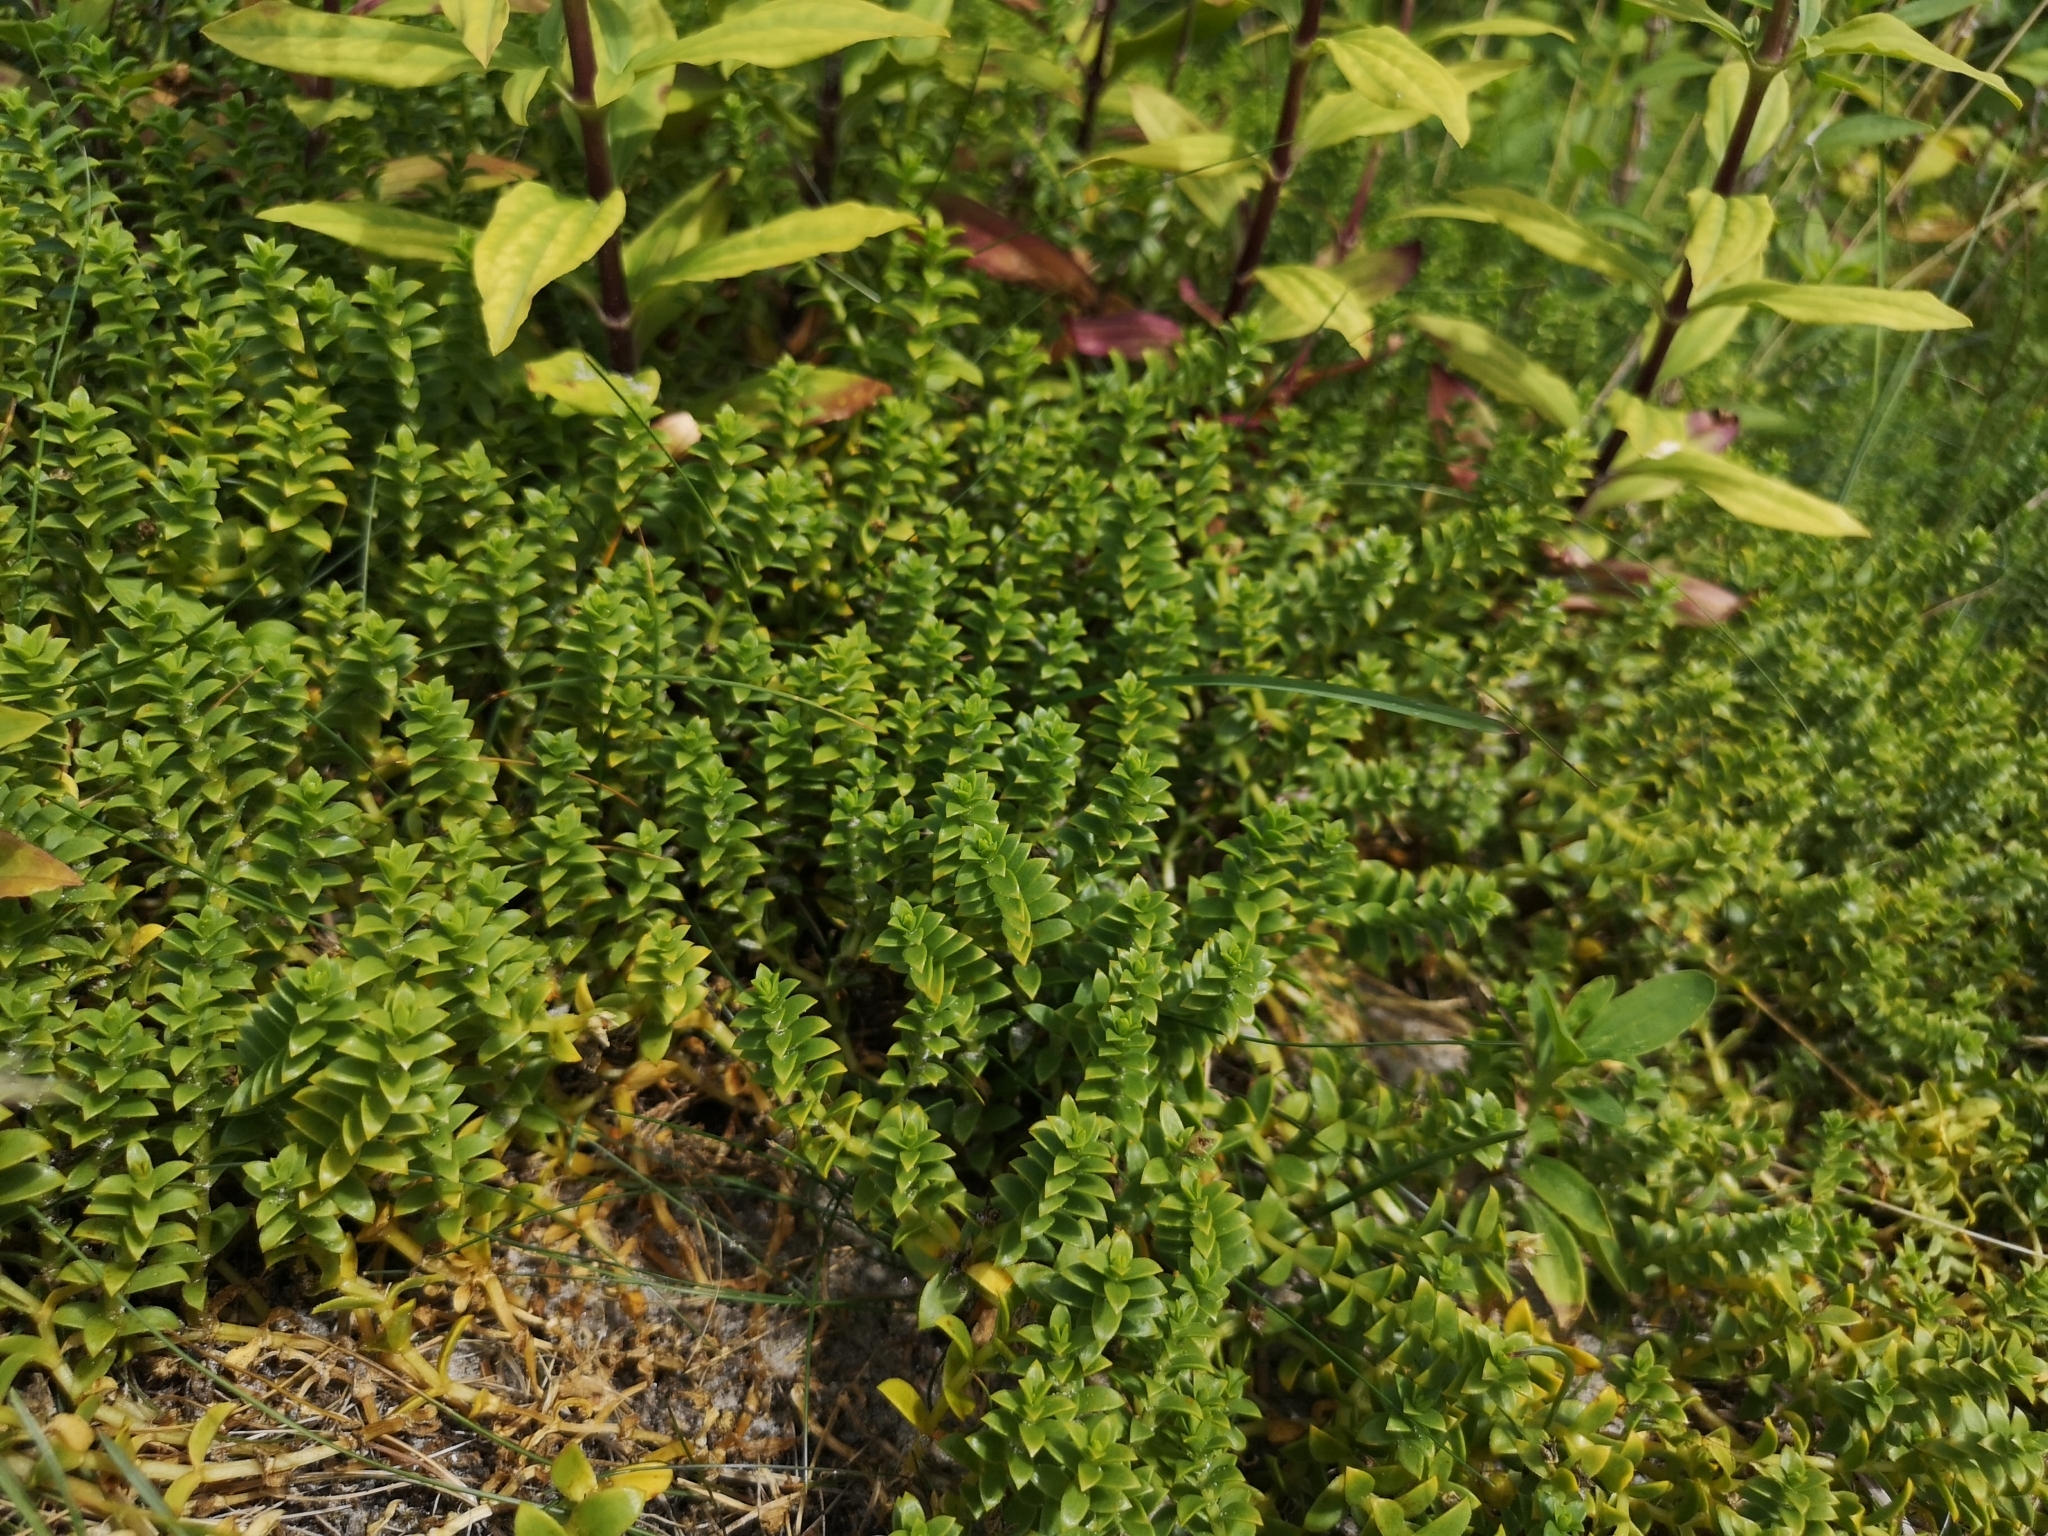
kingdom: Plantae
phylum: Tracheophyta
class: Magnoliopsida
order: Caryophyllales
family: Caryophyllaceae
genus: Honckenya
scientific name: Honckenya peploides
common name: Sea sandwort
